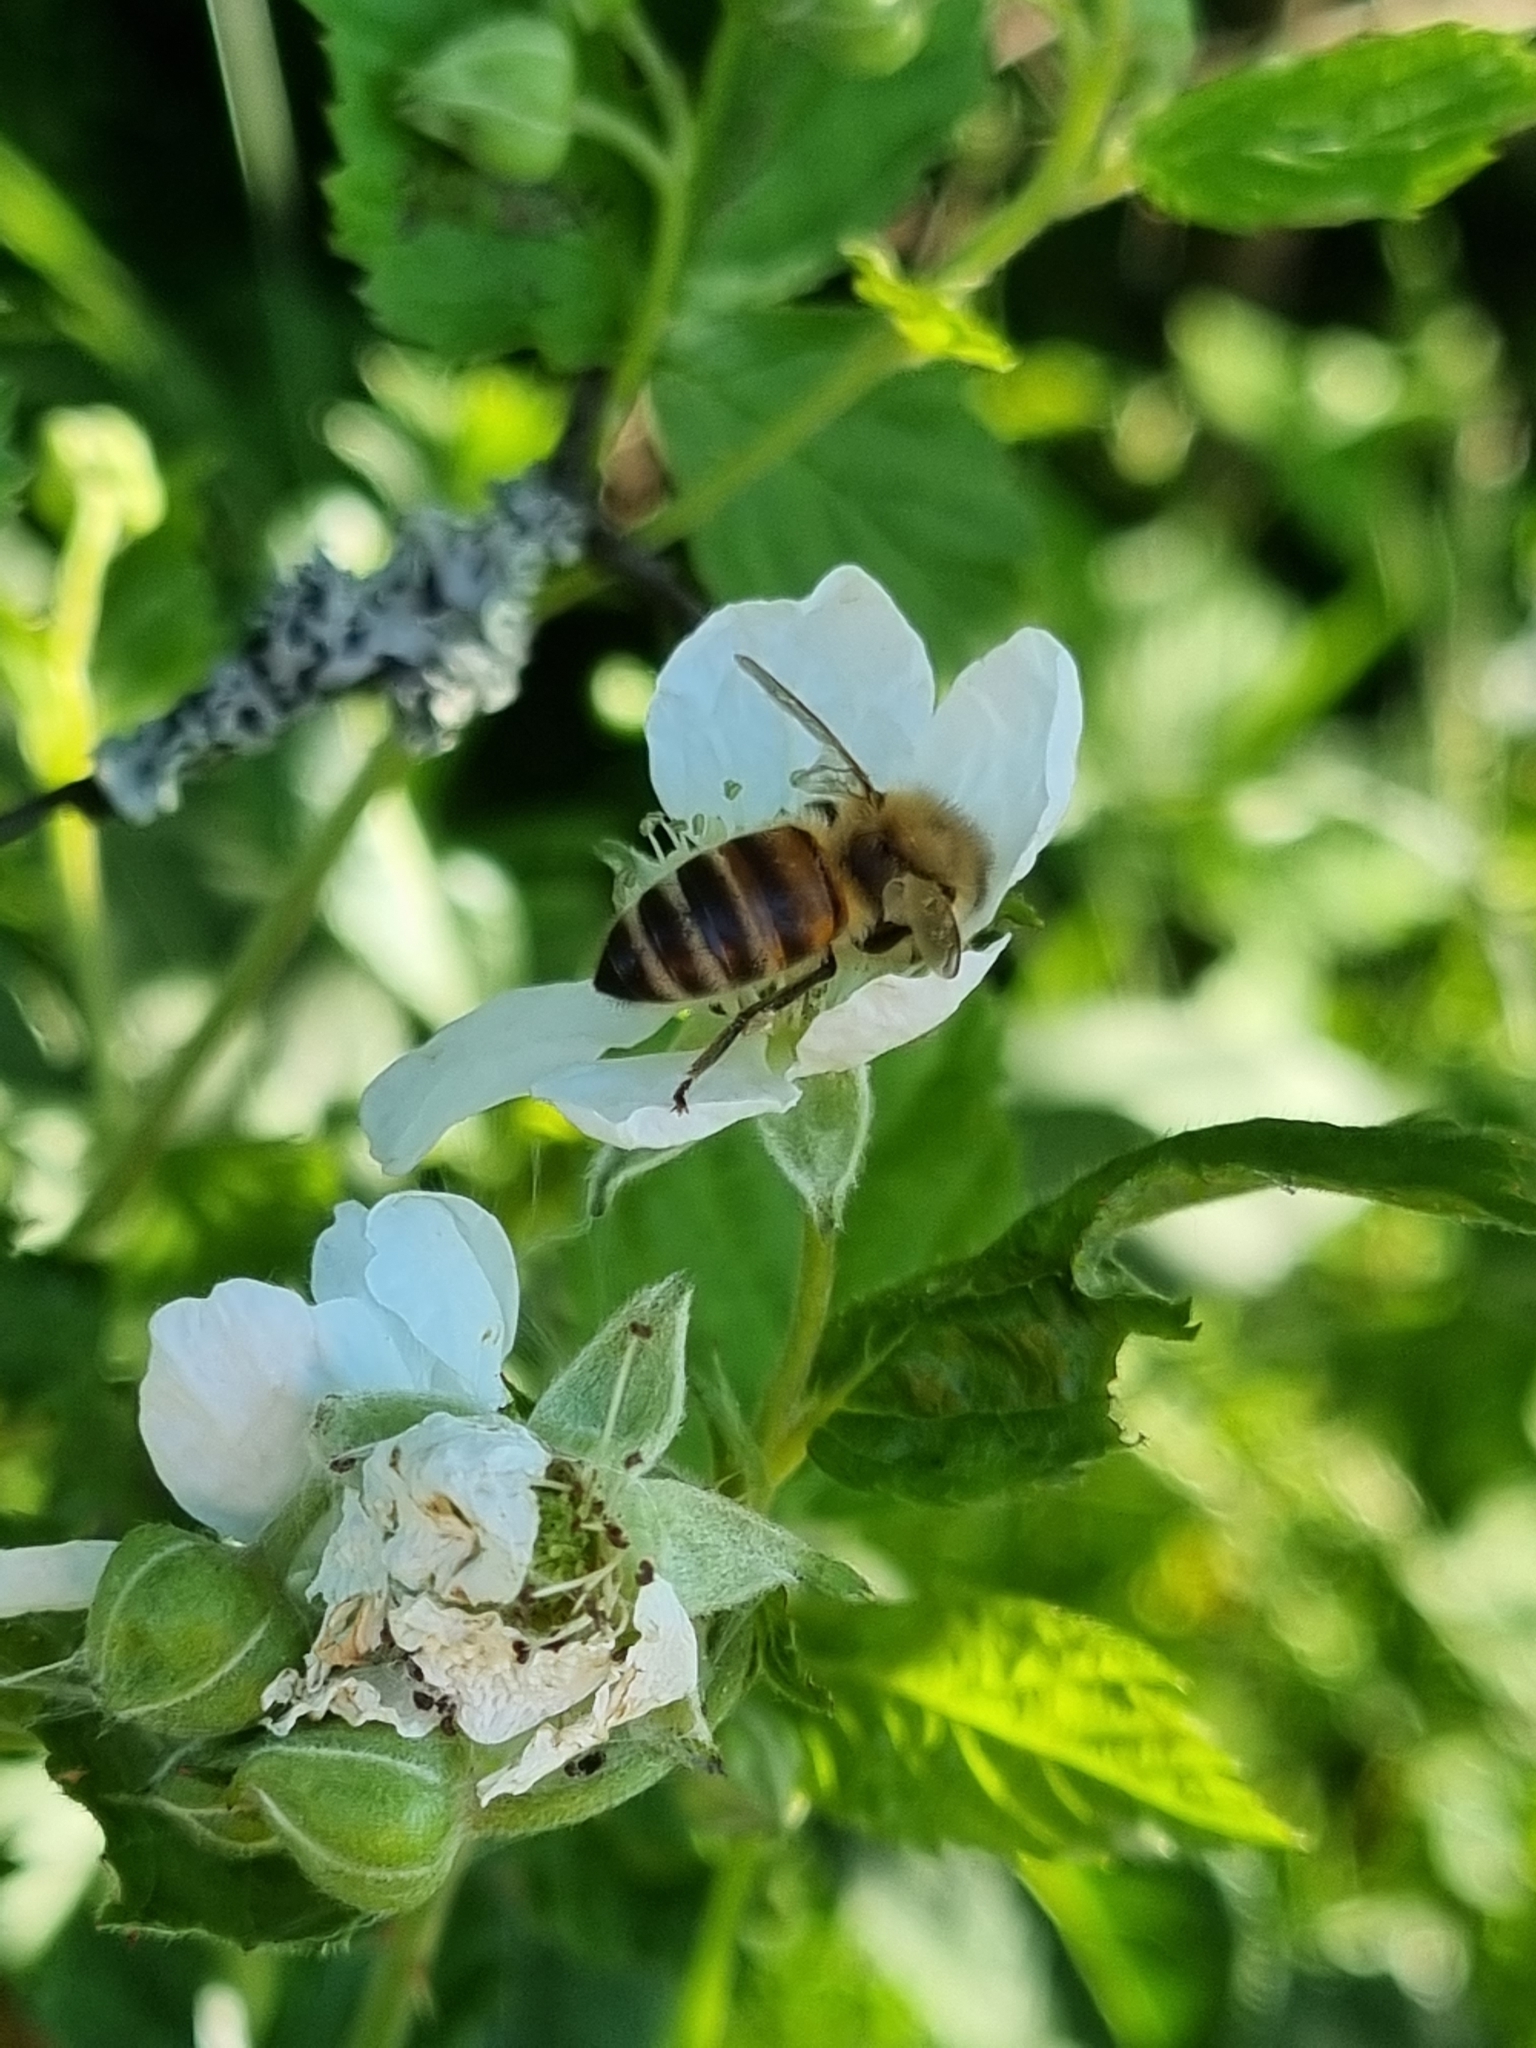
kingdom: Animalia
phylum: Arthropoda
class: Insecta
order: Hymenoptera
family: Apidae
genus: Apis
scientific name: Apis mellifera
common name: Honey bee
